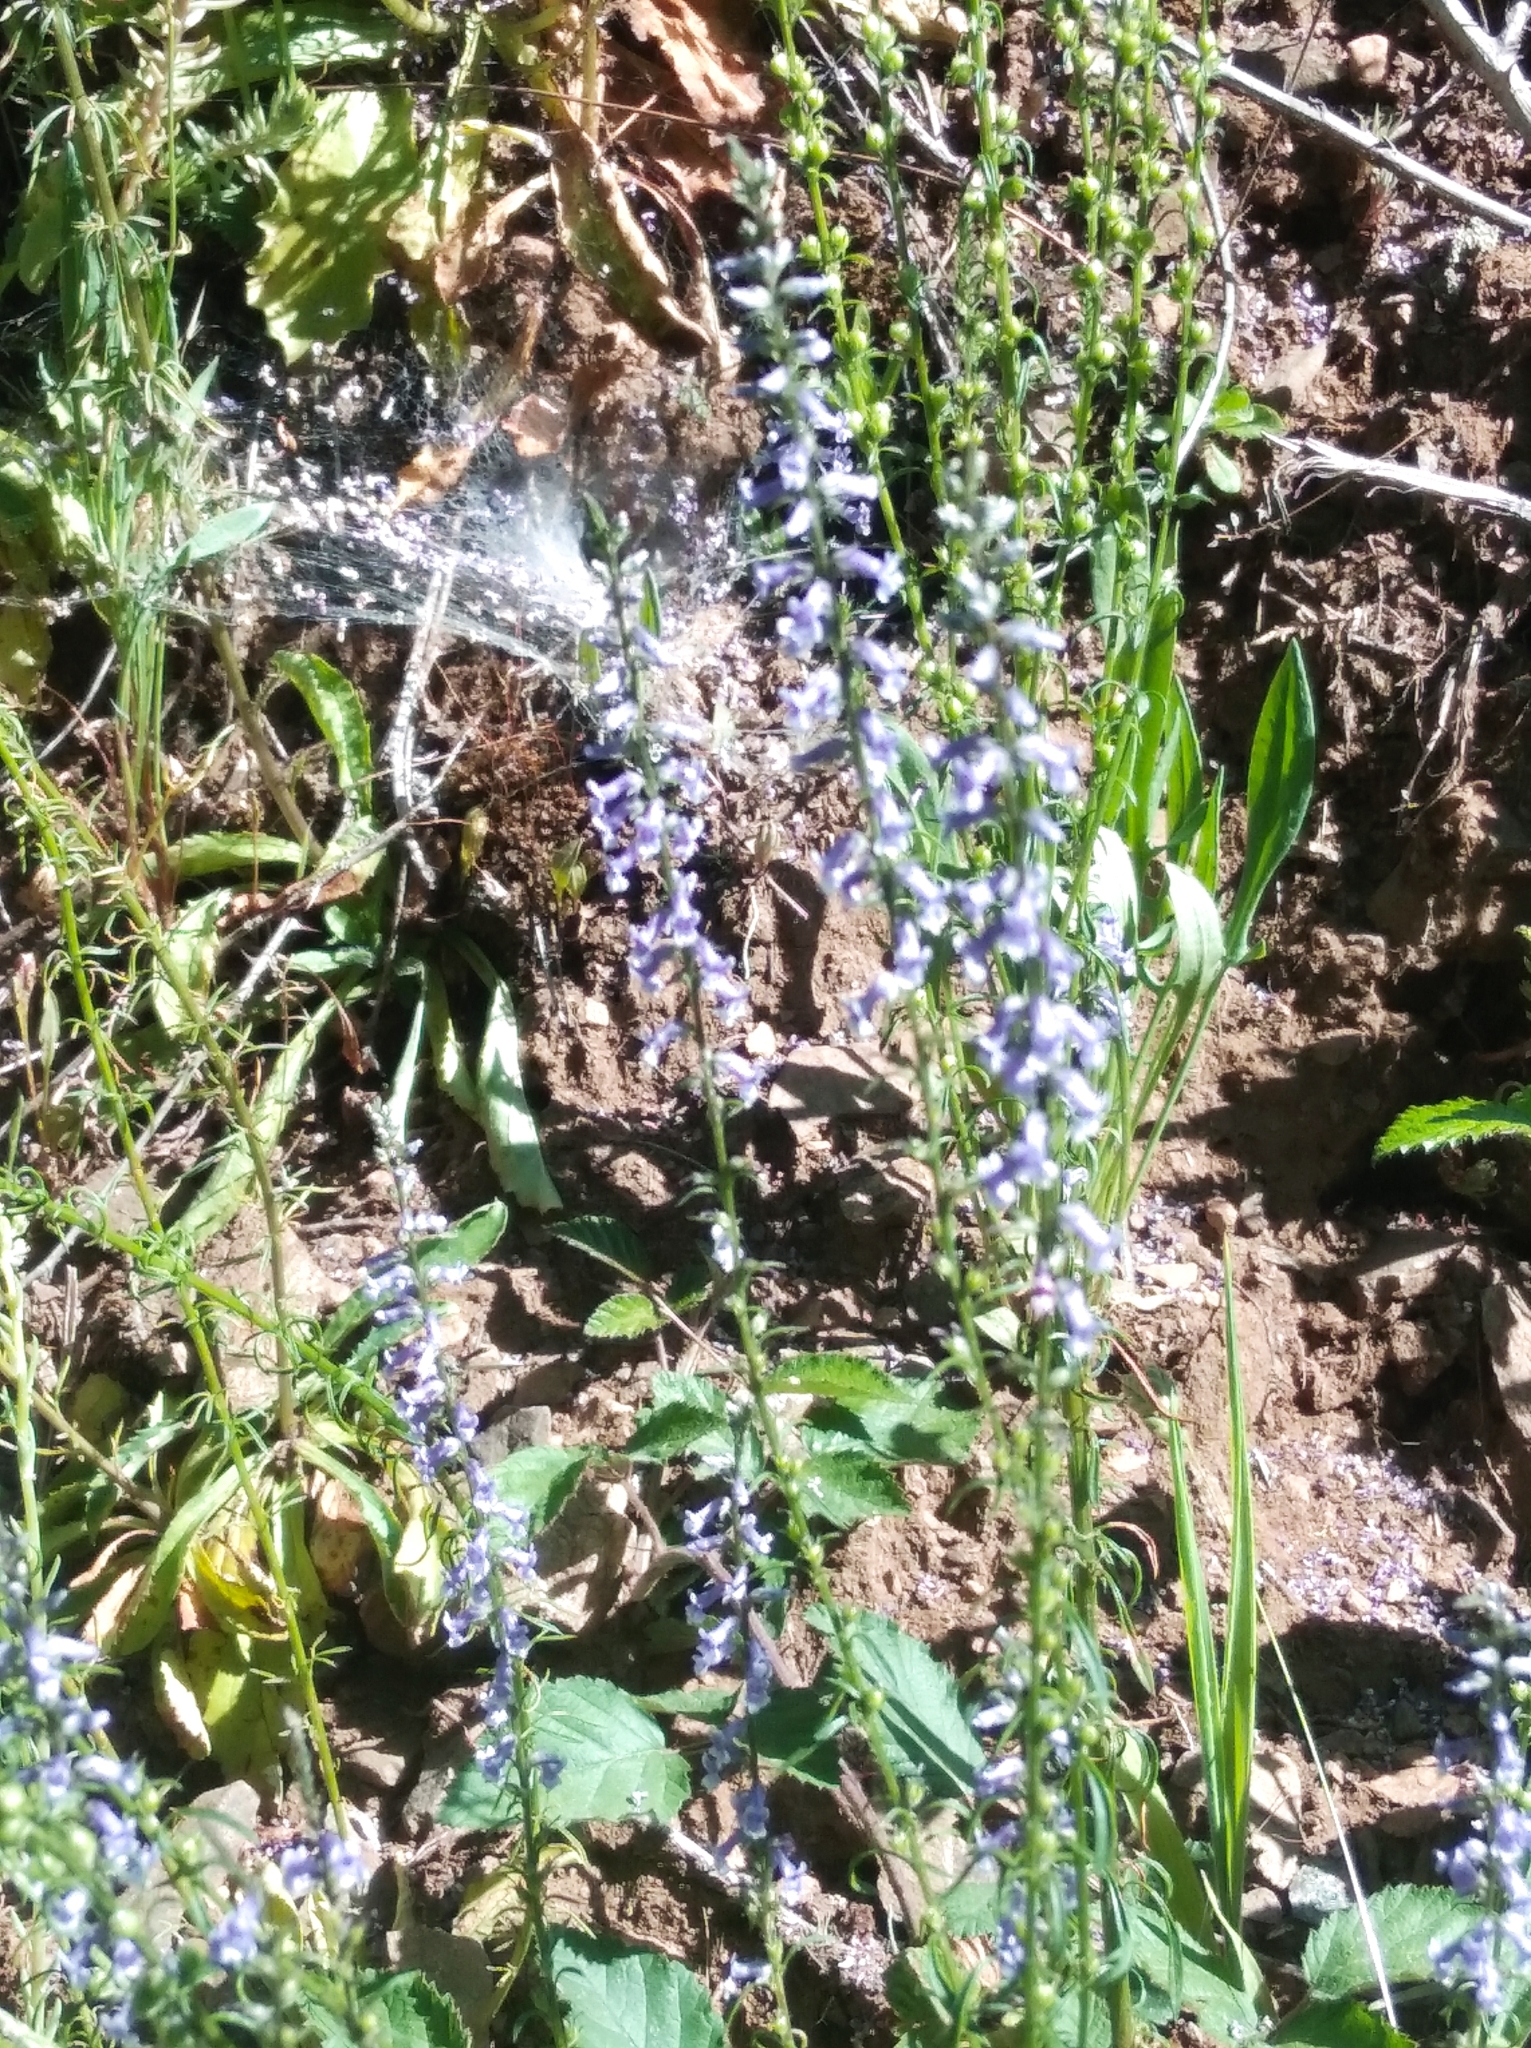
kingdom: Plantae
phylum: Tracheophyta
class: Magnoliopsida
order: Lamiales
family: Plantaginaceae
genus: Anarrhinum
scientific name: Anarrhinum bellidifolium
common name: Daisy-leaved toadflax
